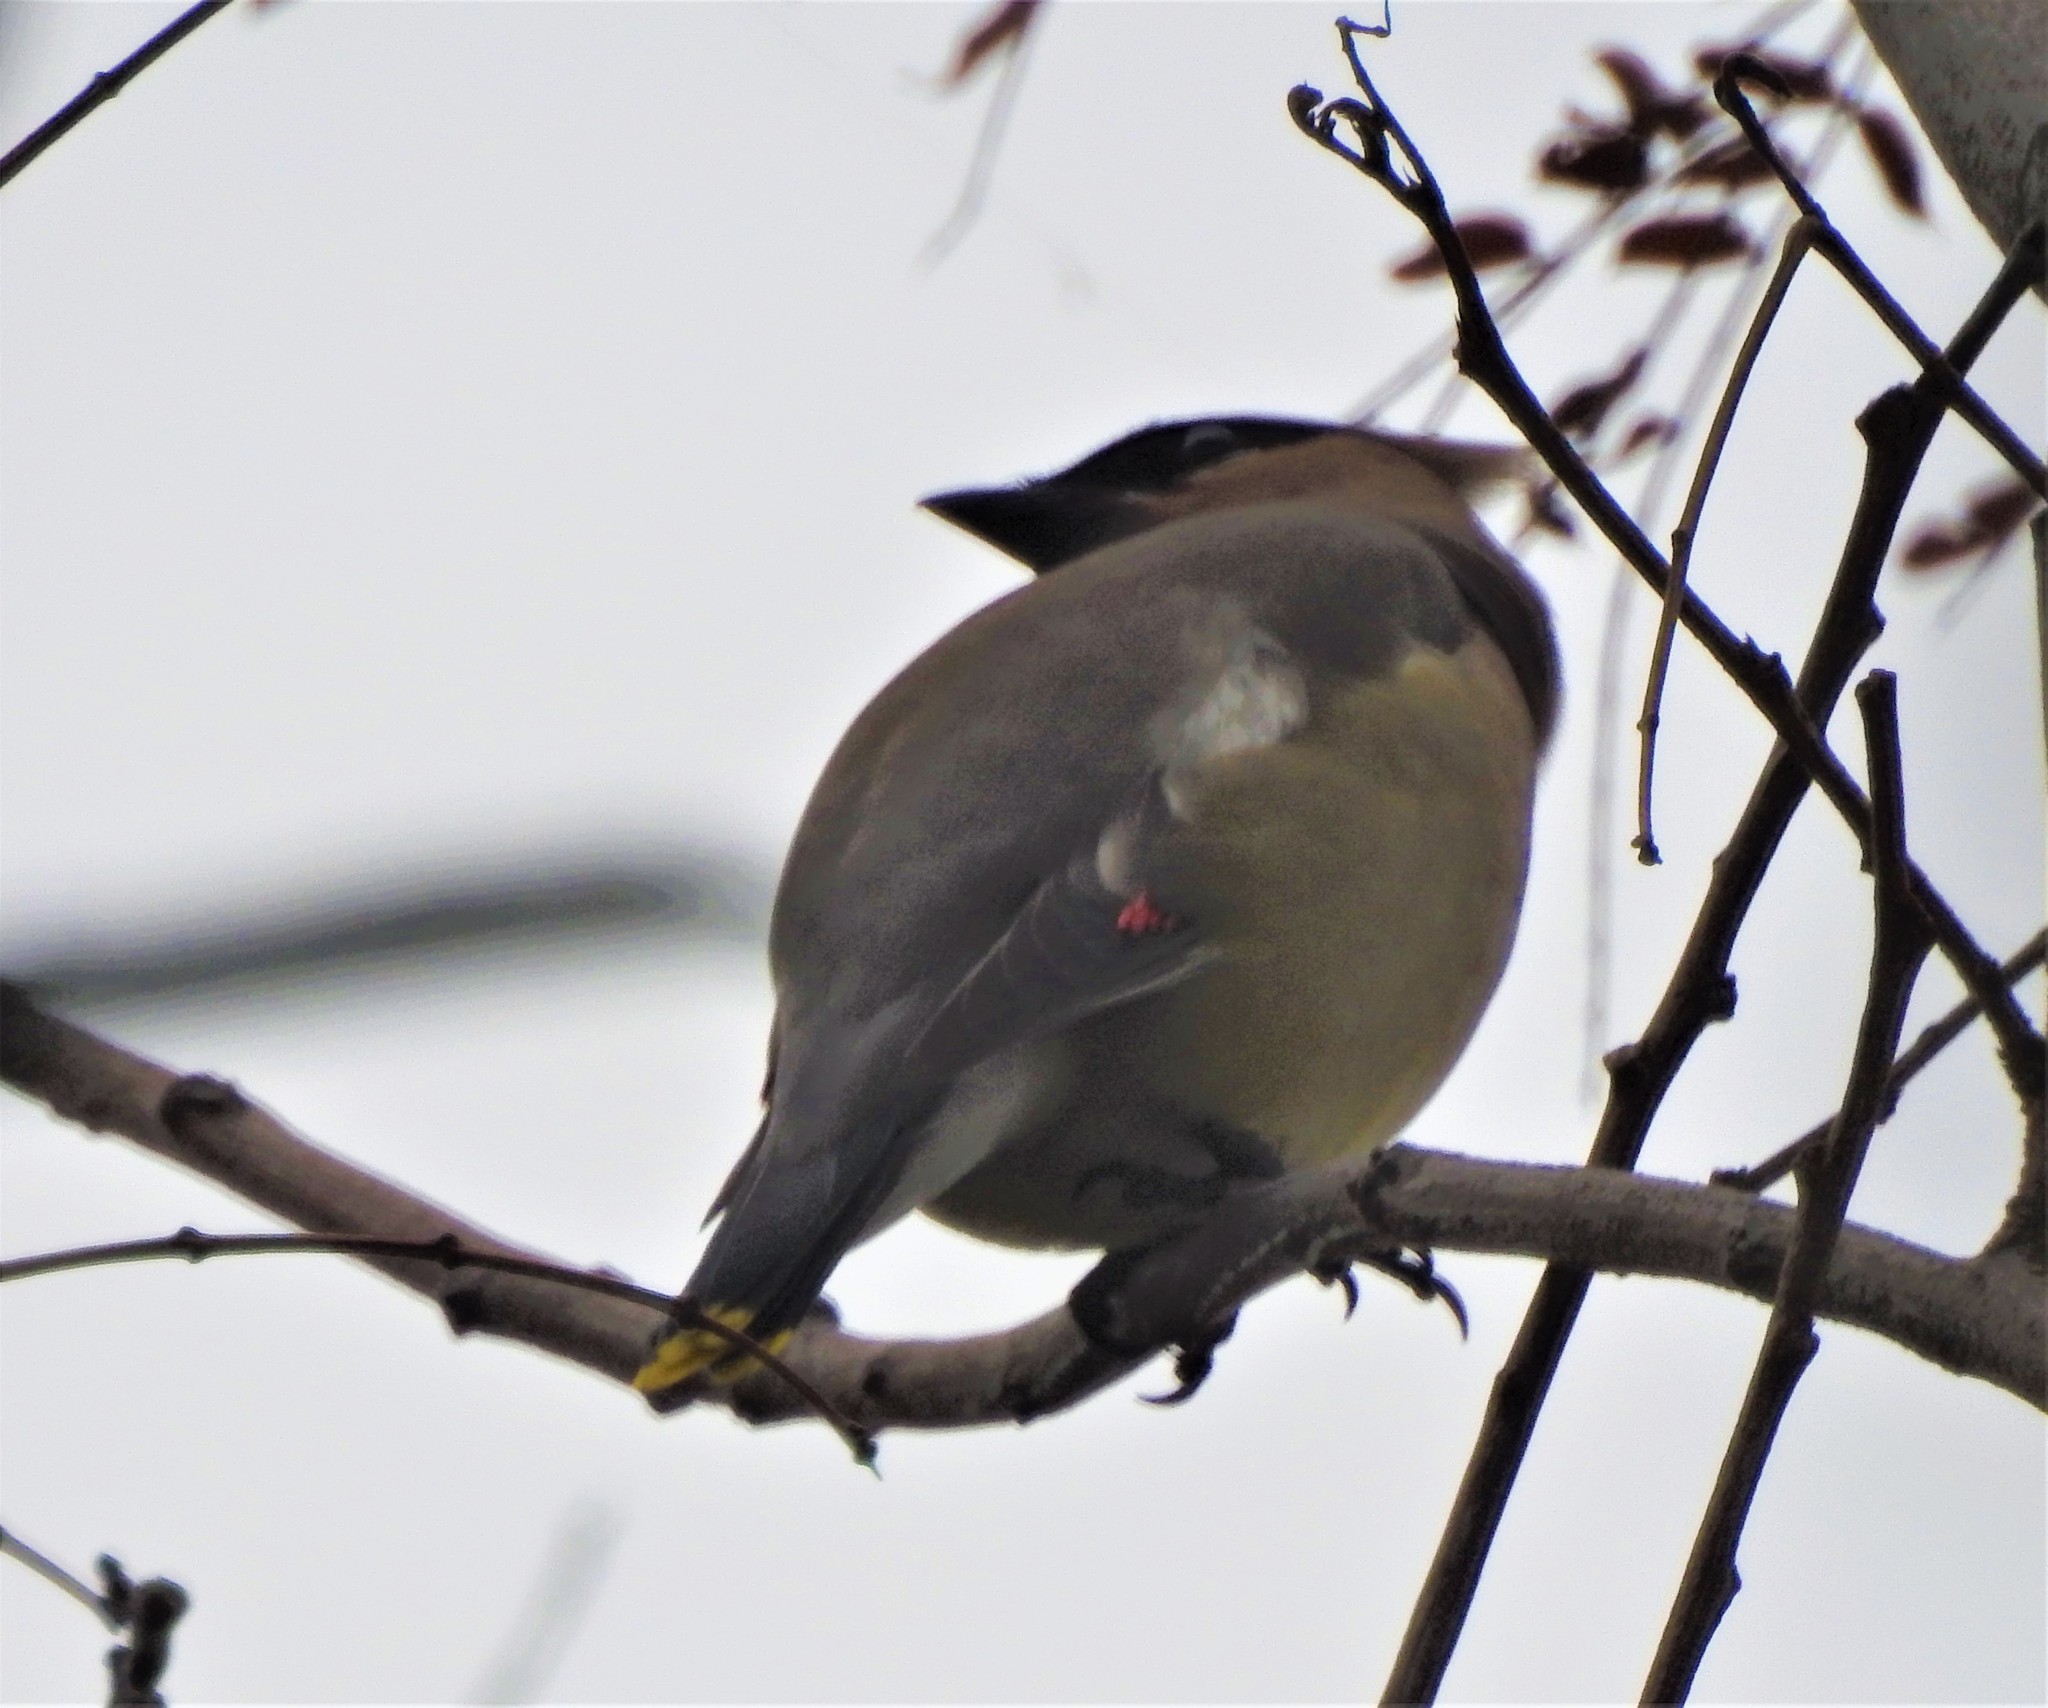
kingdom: Animalia
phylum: Chordata
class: Aves
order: Passeriformes
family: Bombycillidae
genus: Bombycilla
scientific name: Bombycilla cedrorum
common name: Cedar waxwing
